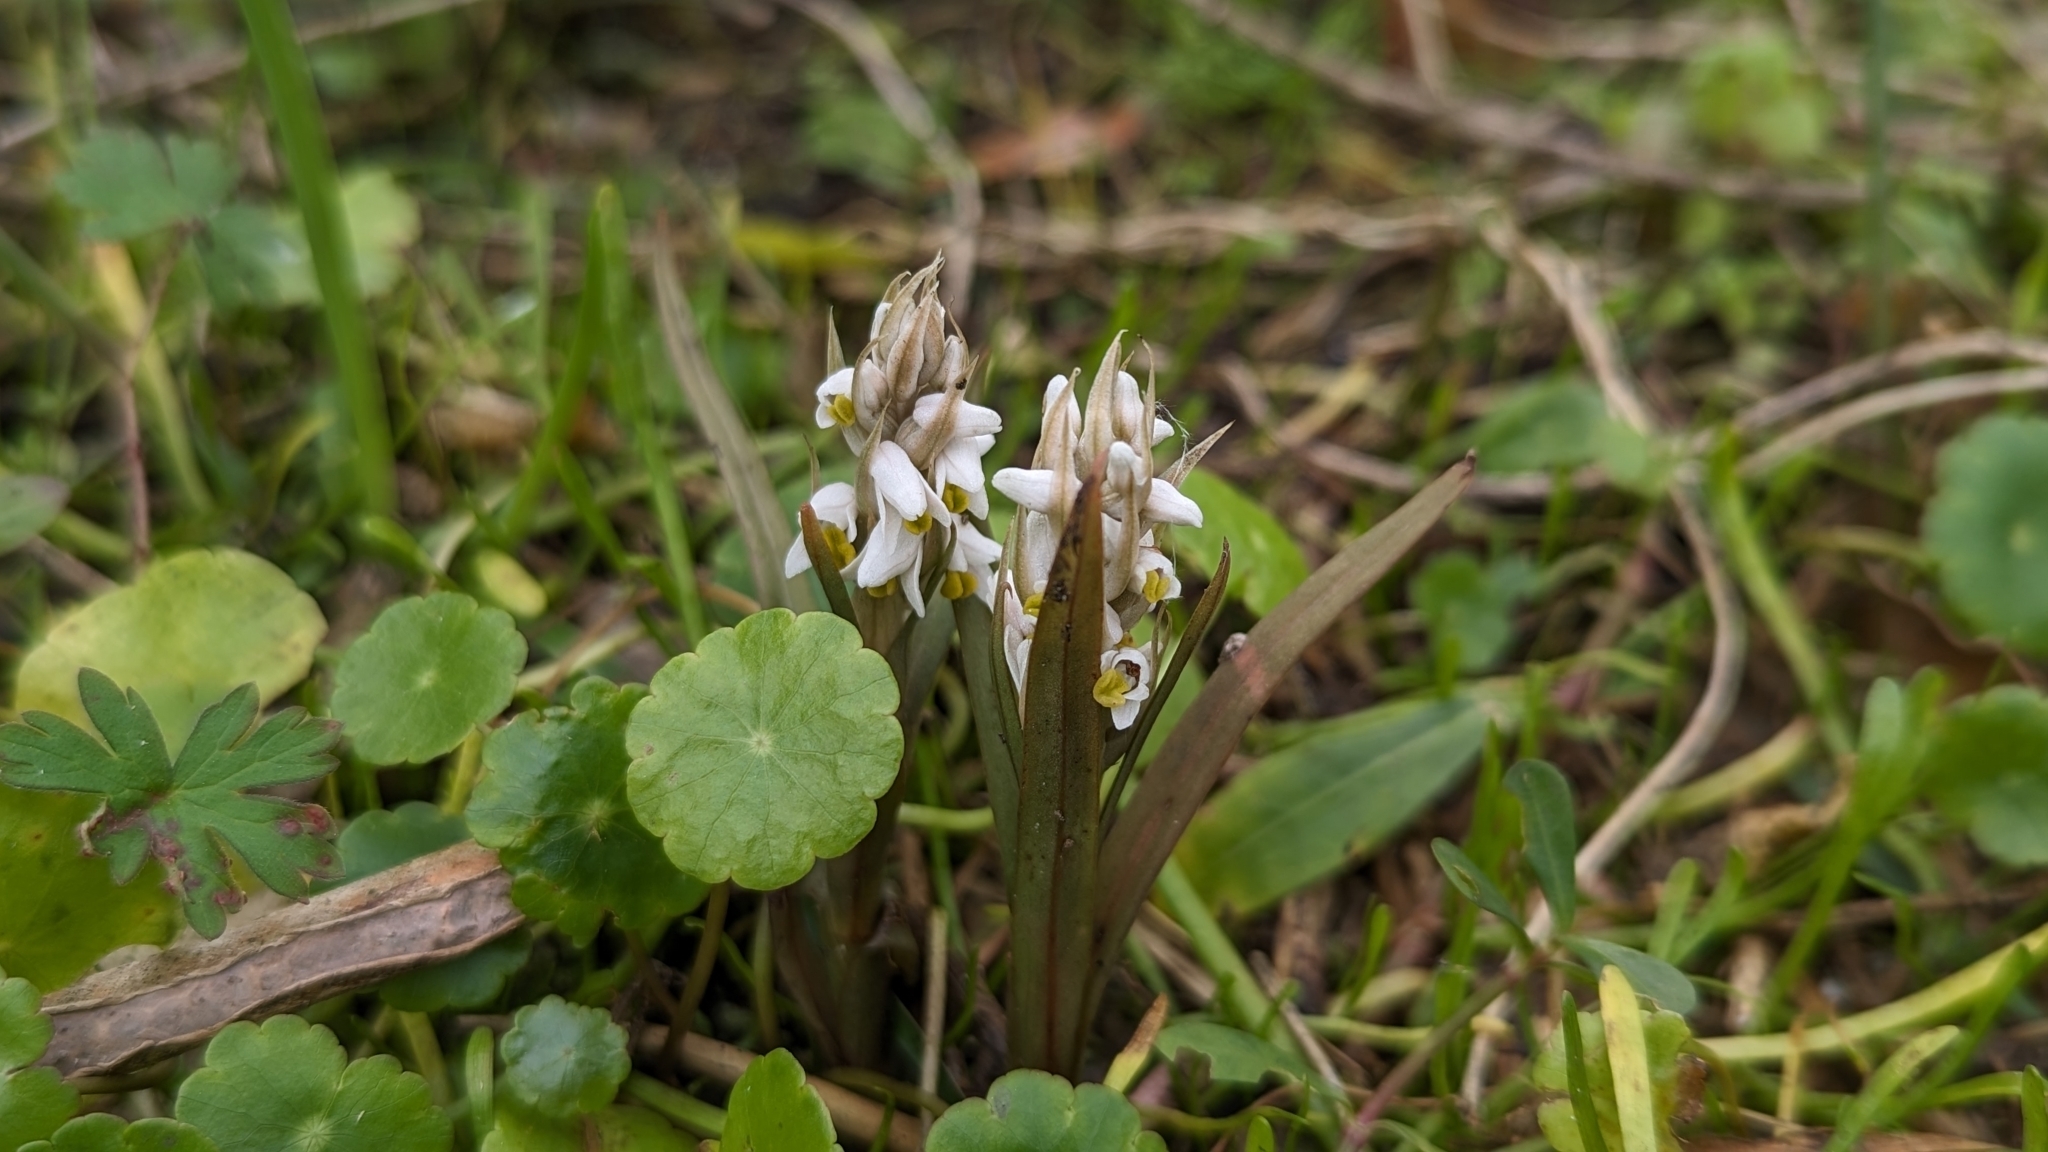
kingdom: Plantae
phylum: Tracheophyta
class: Liliopsida
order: Asparagales
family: Orchidaceae
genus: Zeuxine
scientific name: Zeuxine strateumatica
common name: Soldier's orchid
